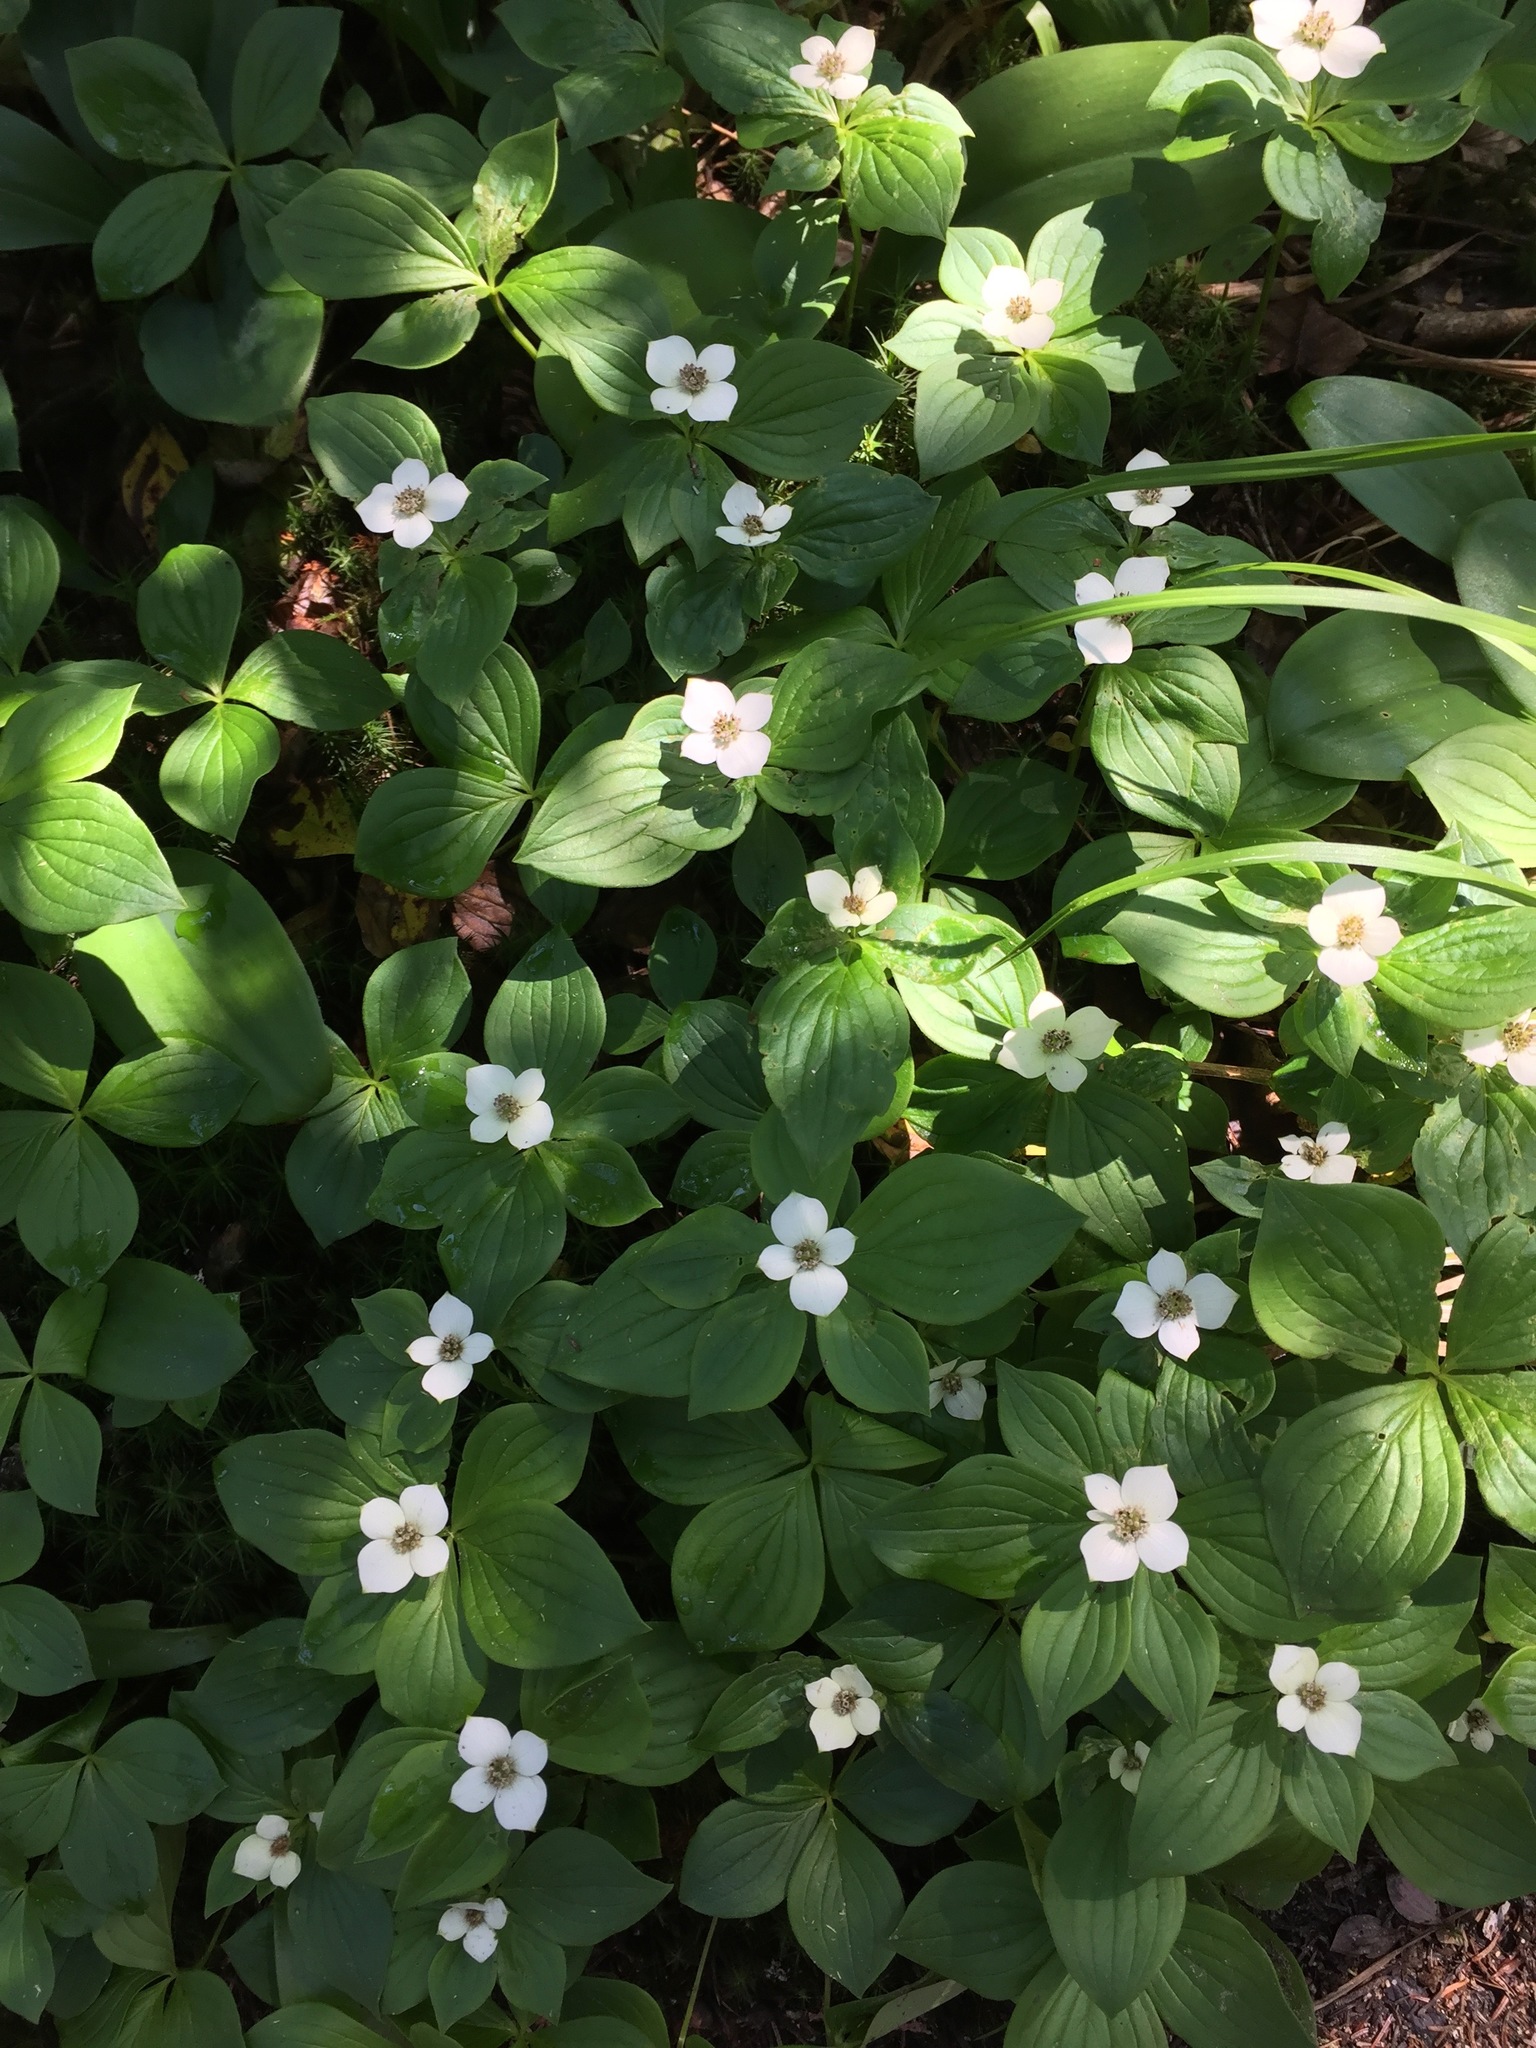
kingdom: Plantae
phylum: Tracheophyta
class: Magnoliopsida
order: Cornales
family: Cornaceae
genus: Cornus
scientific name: Cornus canadensis
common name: Creeping dogwood
